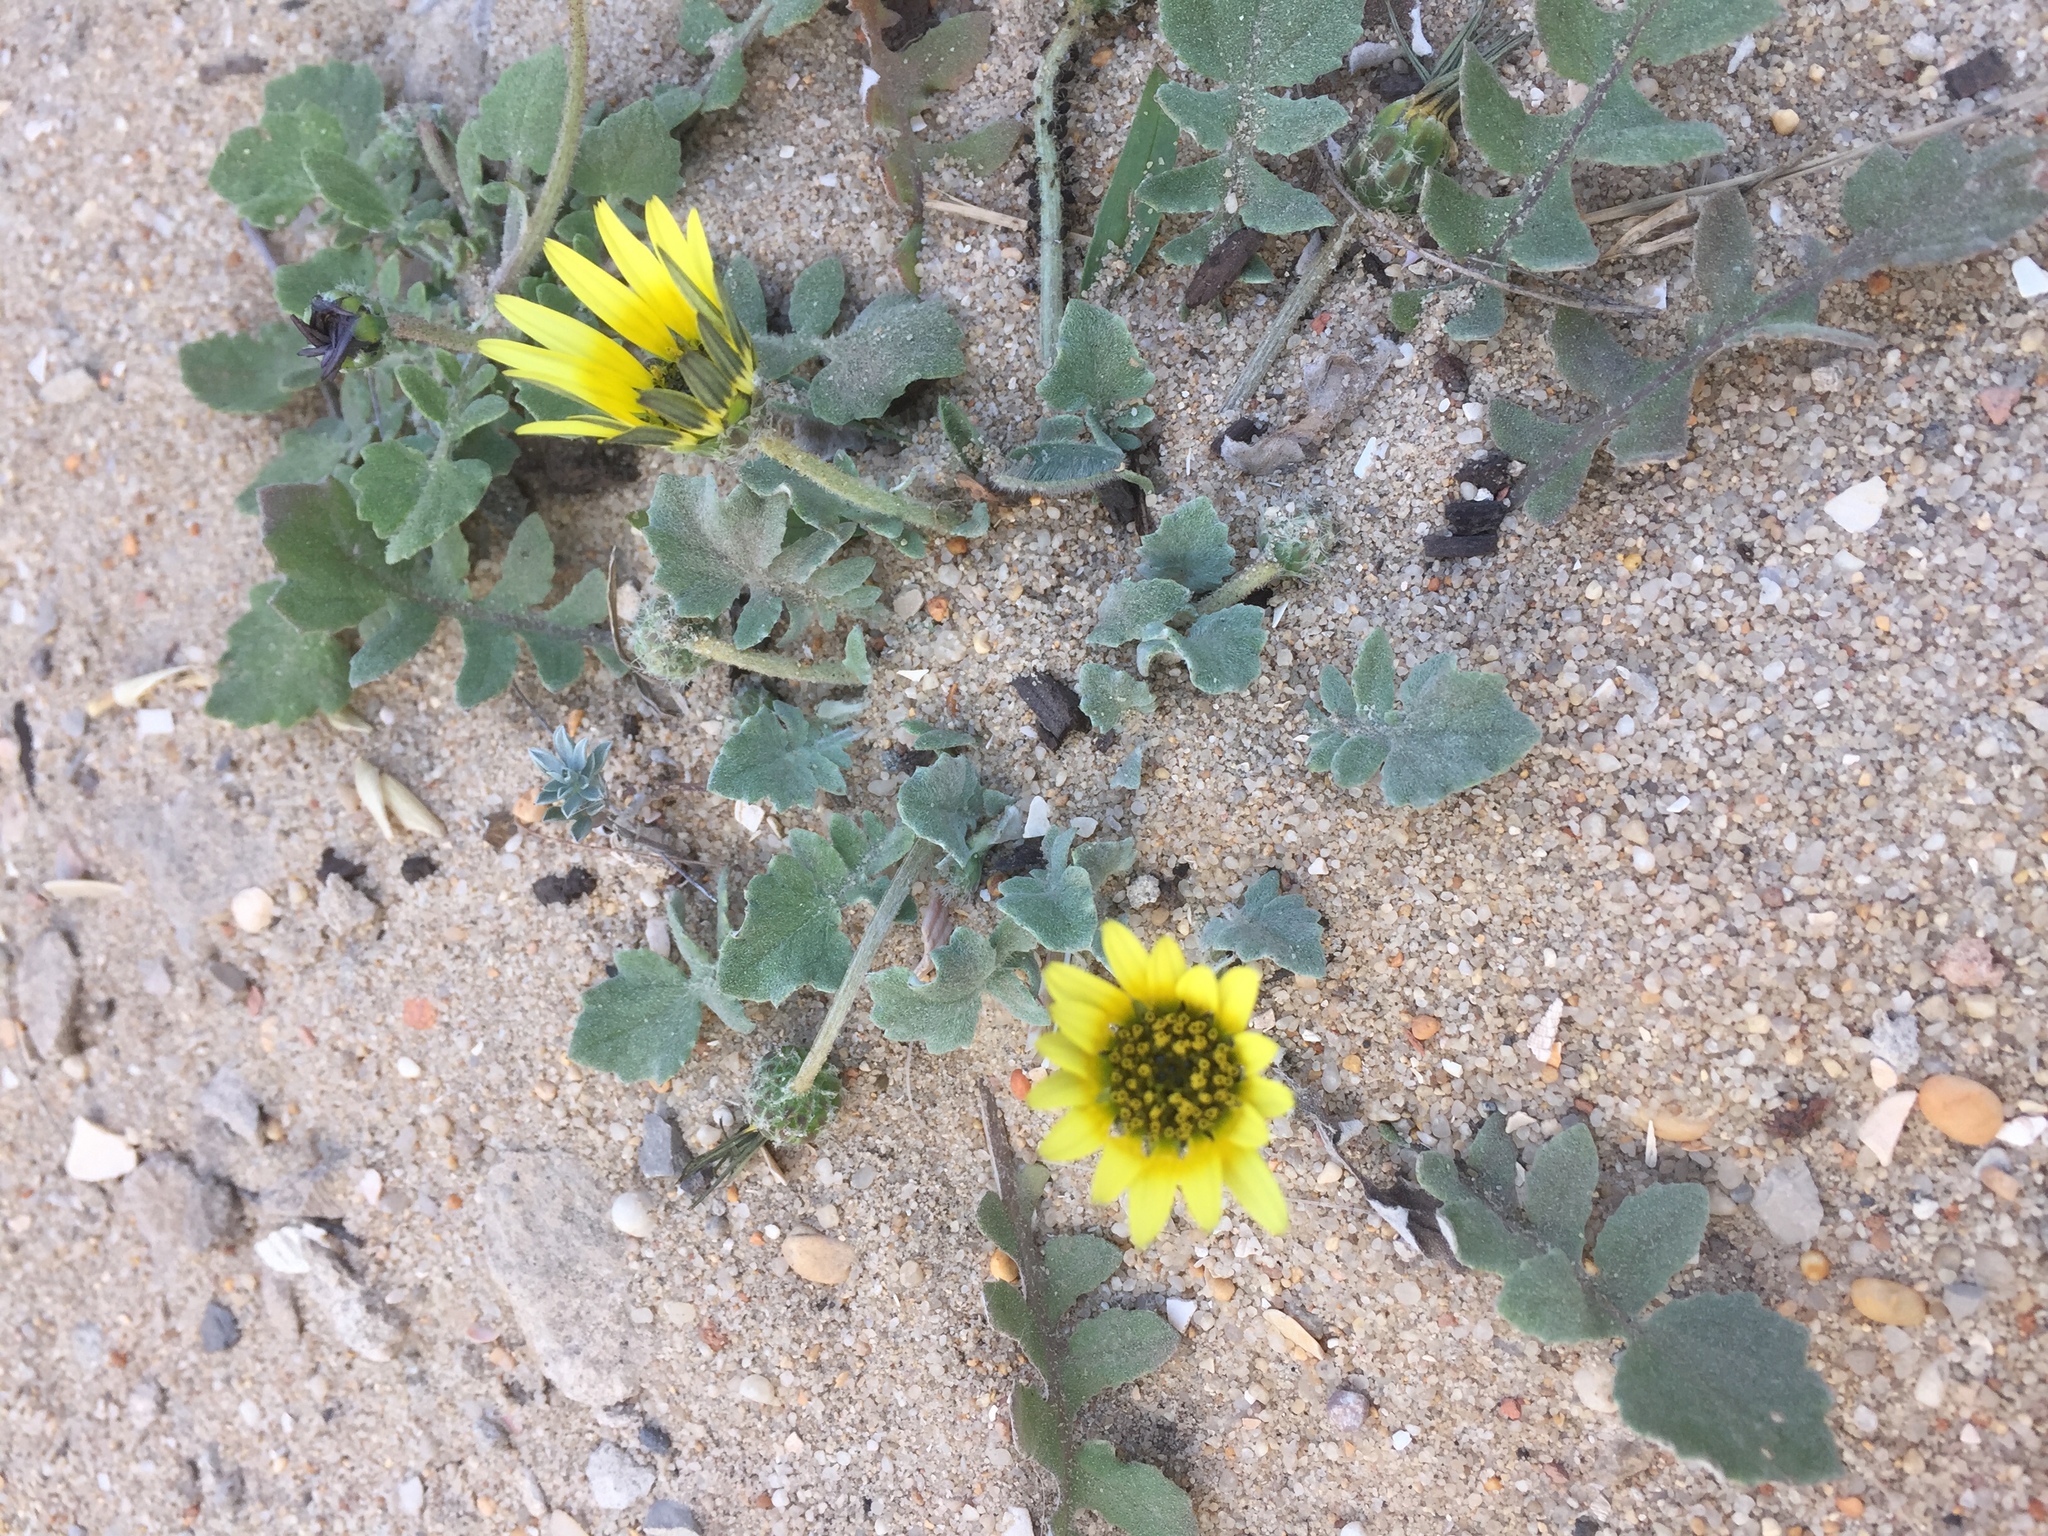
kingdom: Plantae
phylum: Tracheophyta
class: Magnoliopsida
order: Asterales
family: Asteraceae
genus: Arctotheca
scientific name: Arctotheca calendula
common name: Capeweed
